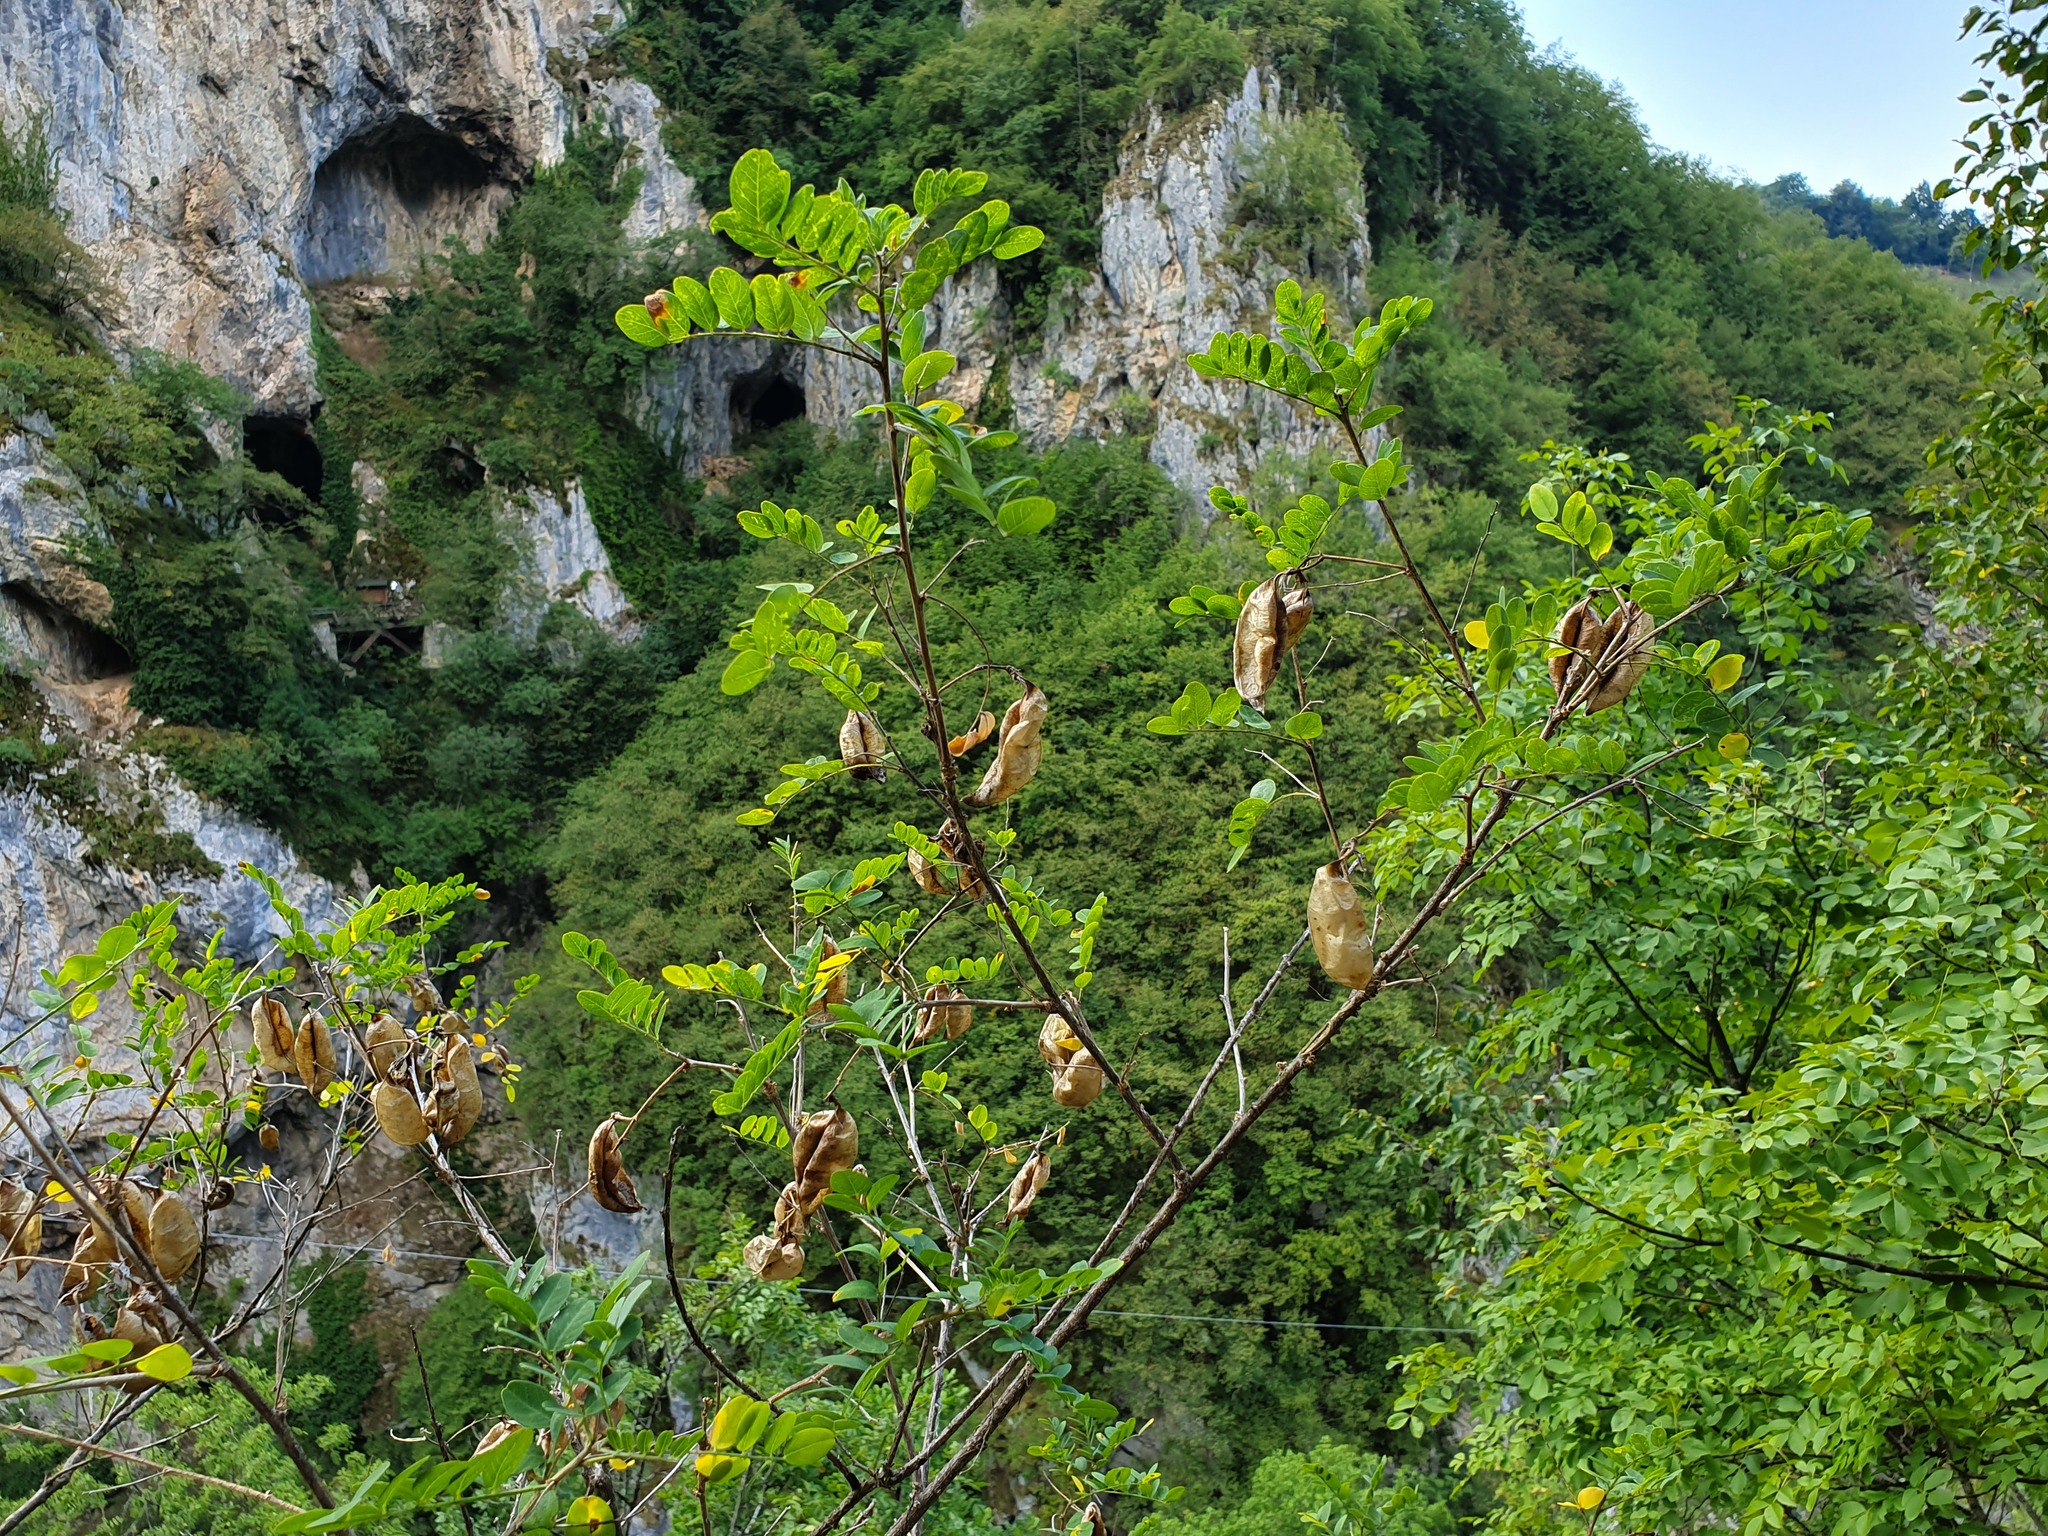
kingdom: Plantae
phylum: Tracheophyta
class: Magnoliopsida
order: Fabales
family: Fabaceae
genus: Colutea
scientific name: Colutea arborescens
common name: Bladder-senna
